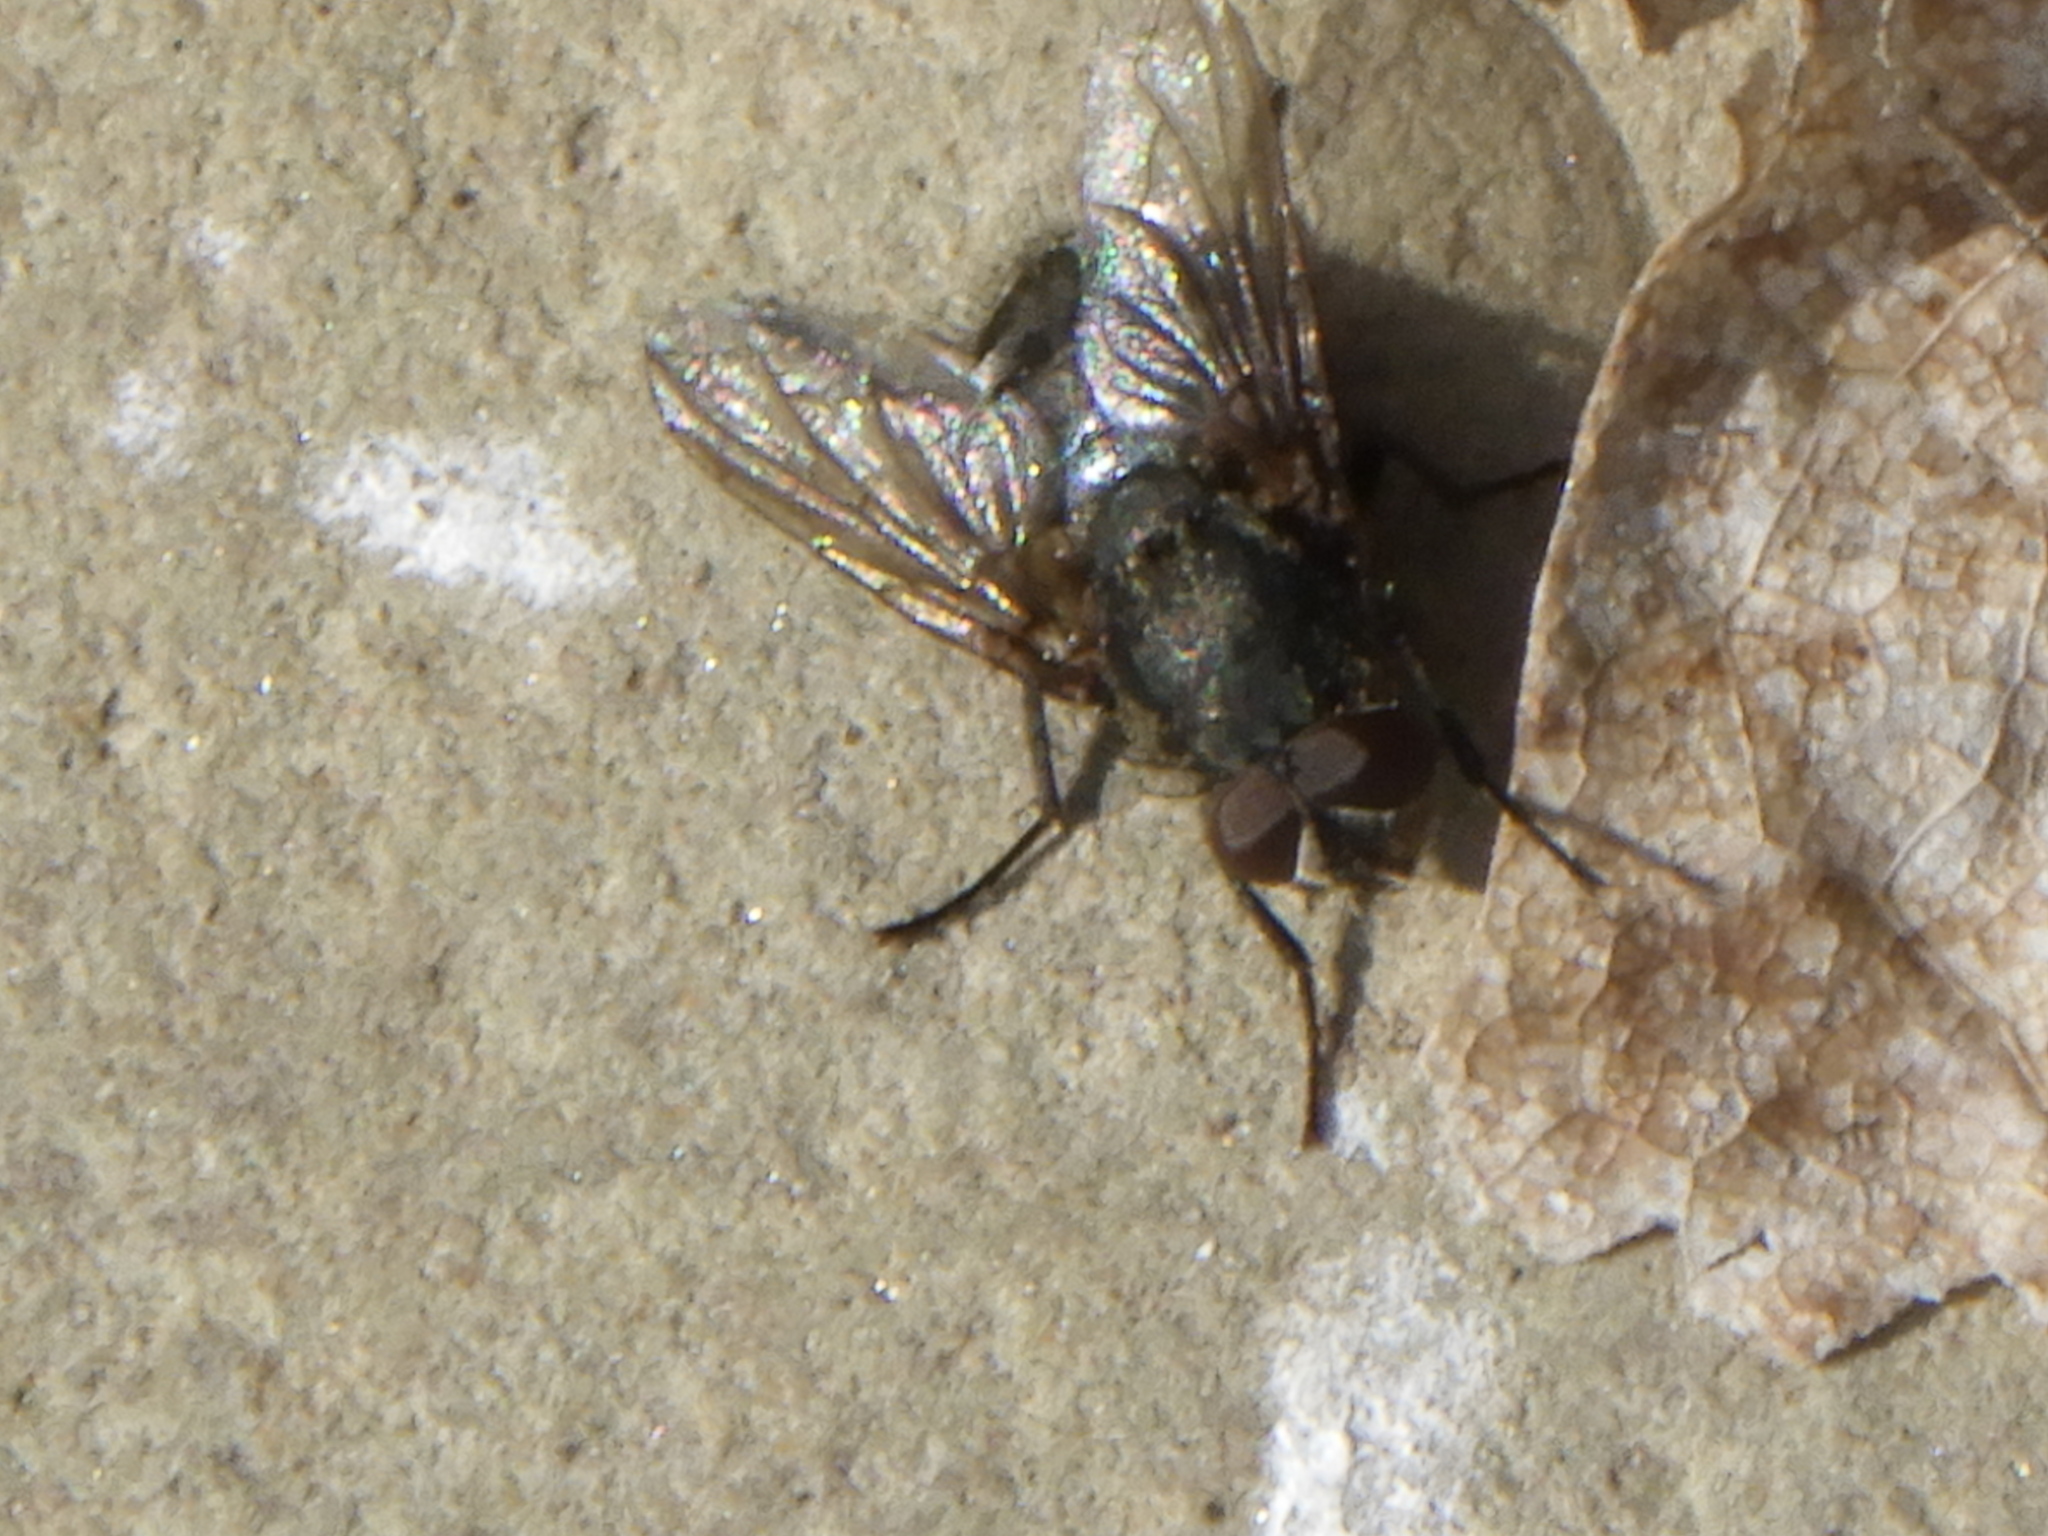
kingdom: Animalia
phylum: Arthropoda
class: Insecta
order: Diptera
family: Polleniidae
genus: Pollenia
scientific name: Pollenia
